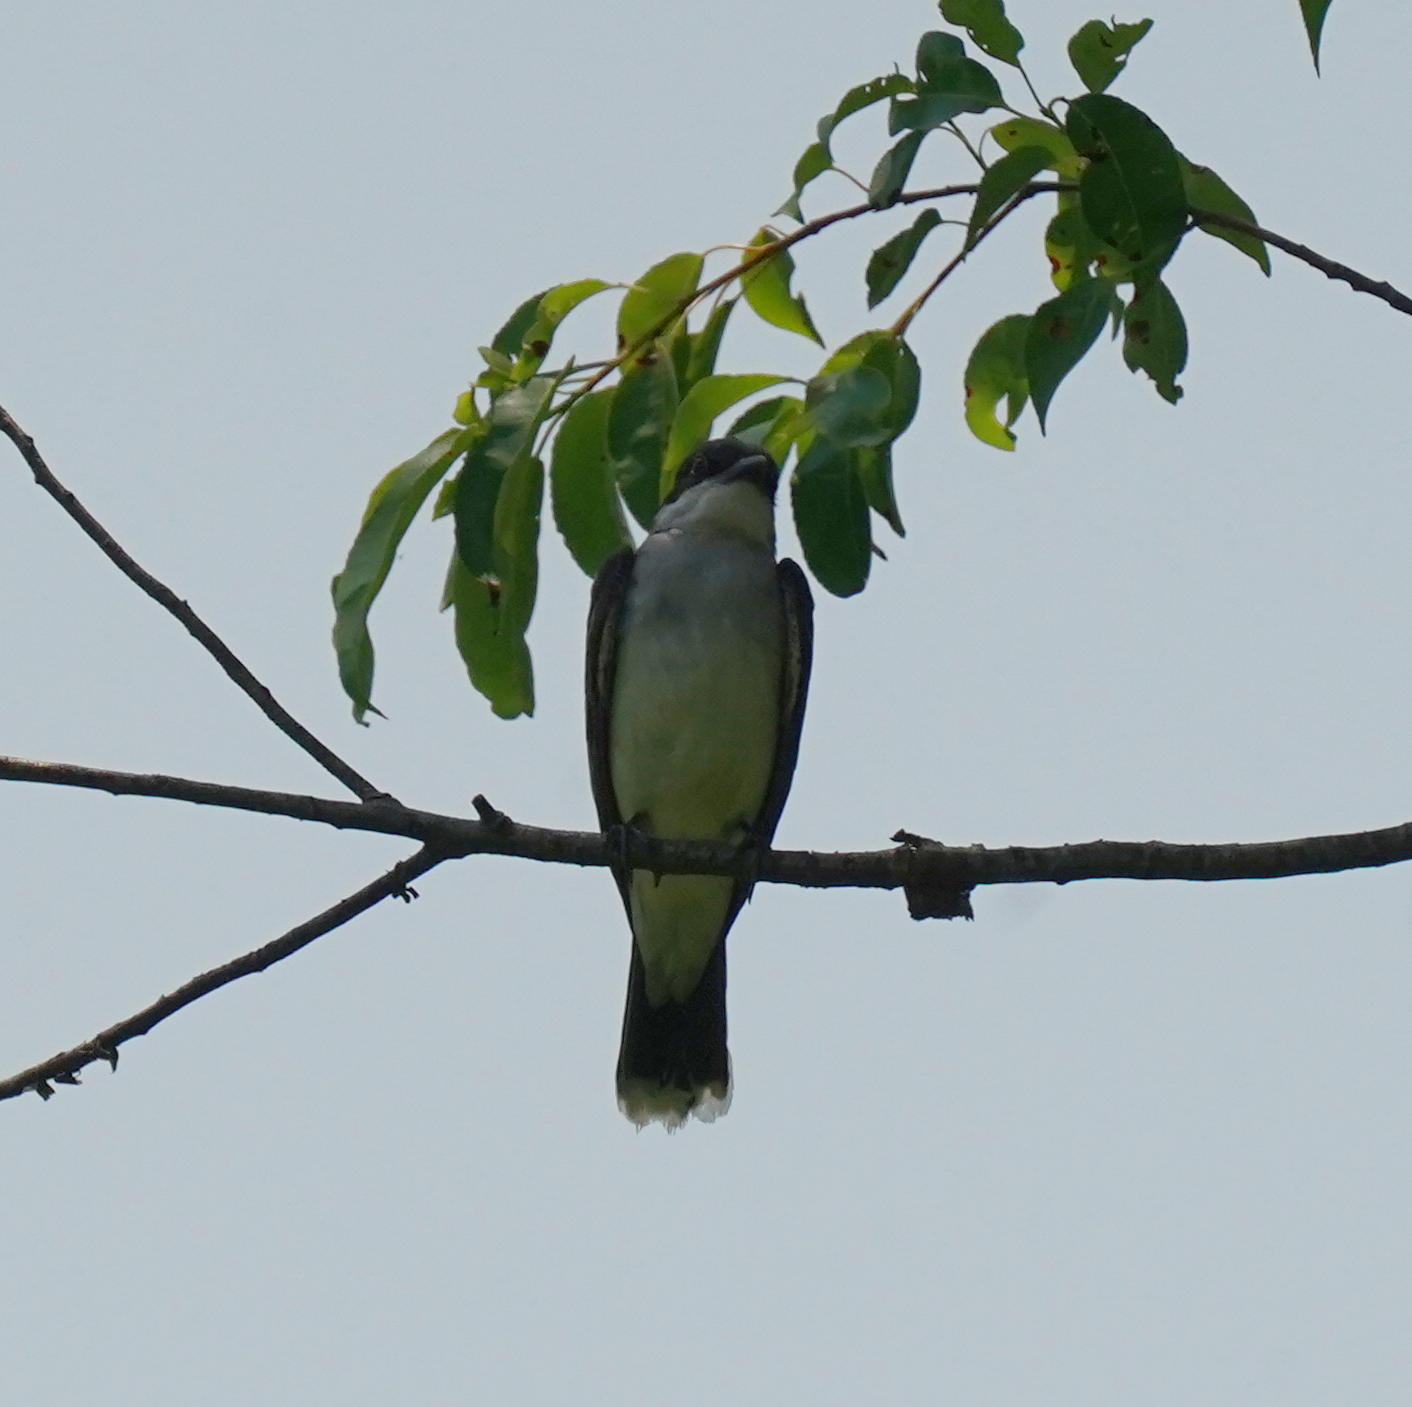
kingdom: Animalia
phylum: Chordata
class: Aves
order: Passeriformes
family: Tyrannidae
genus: Tyrannus
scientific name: Tyrannus tyrannus
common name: Eastern kingbird
